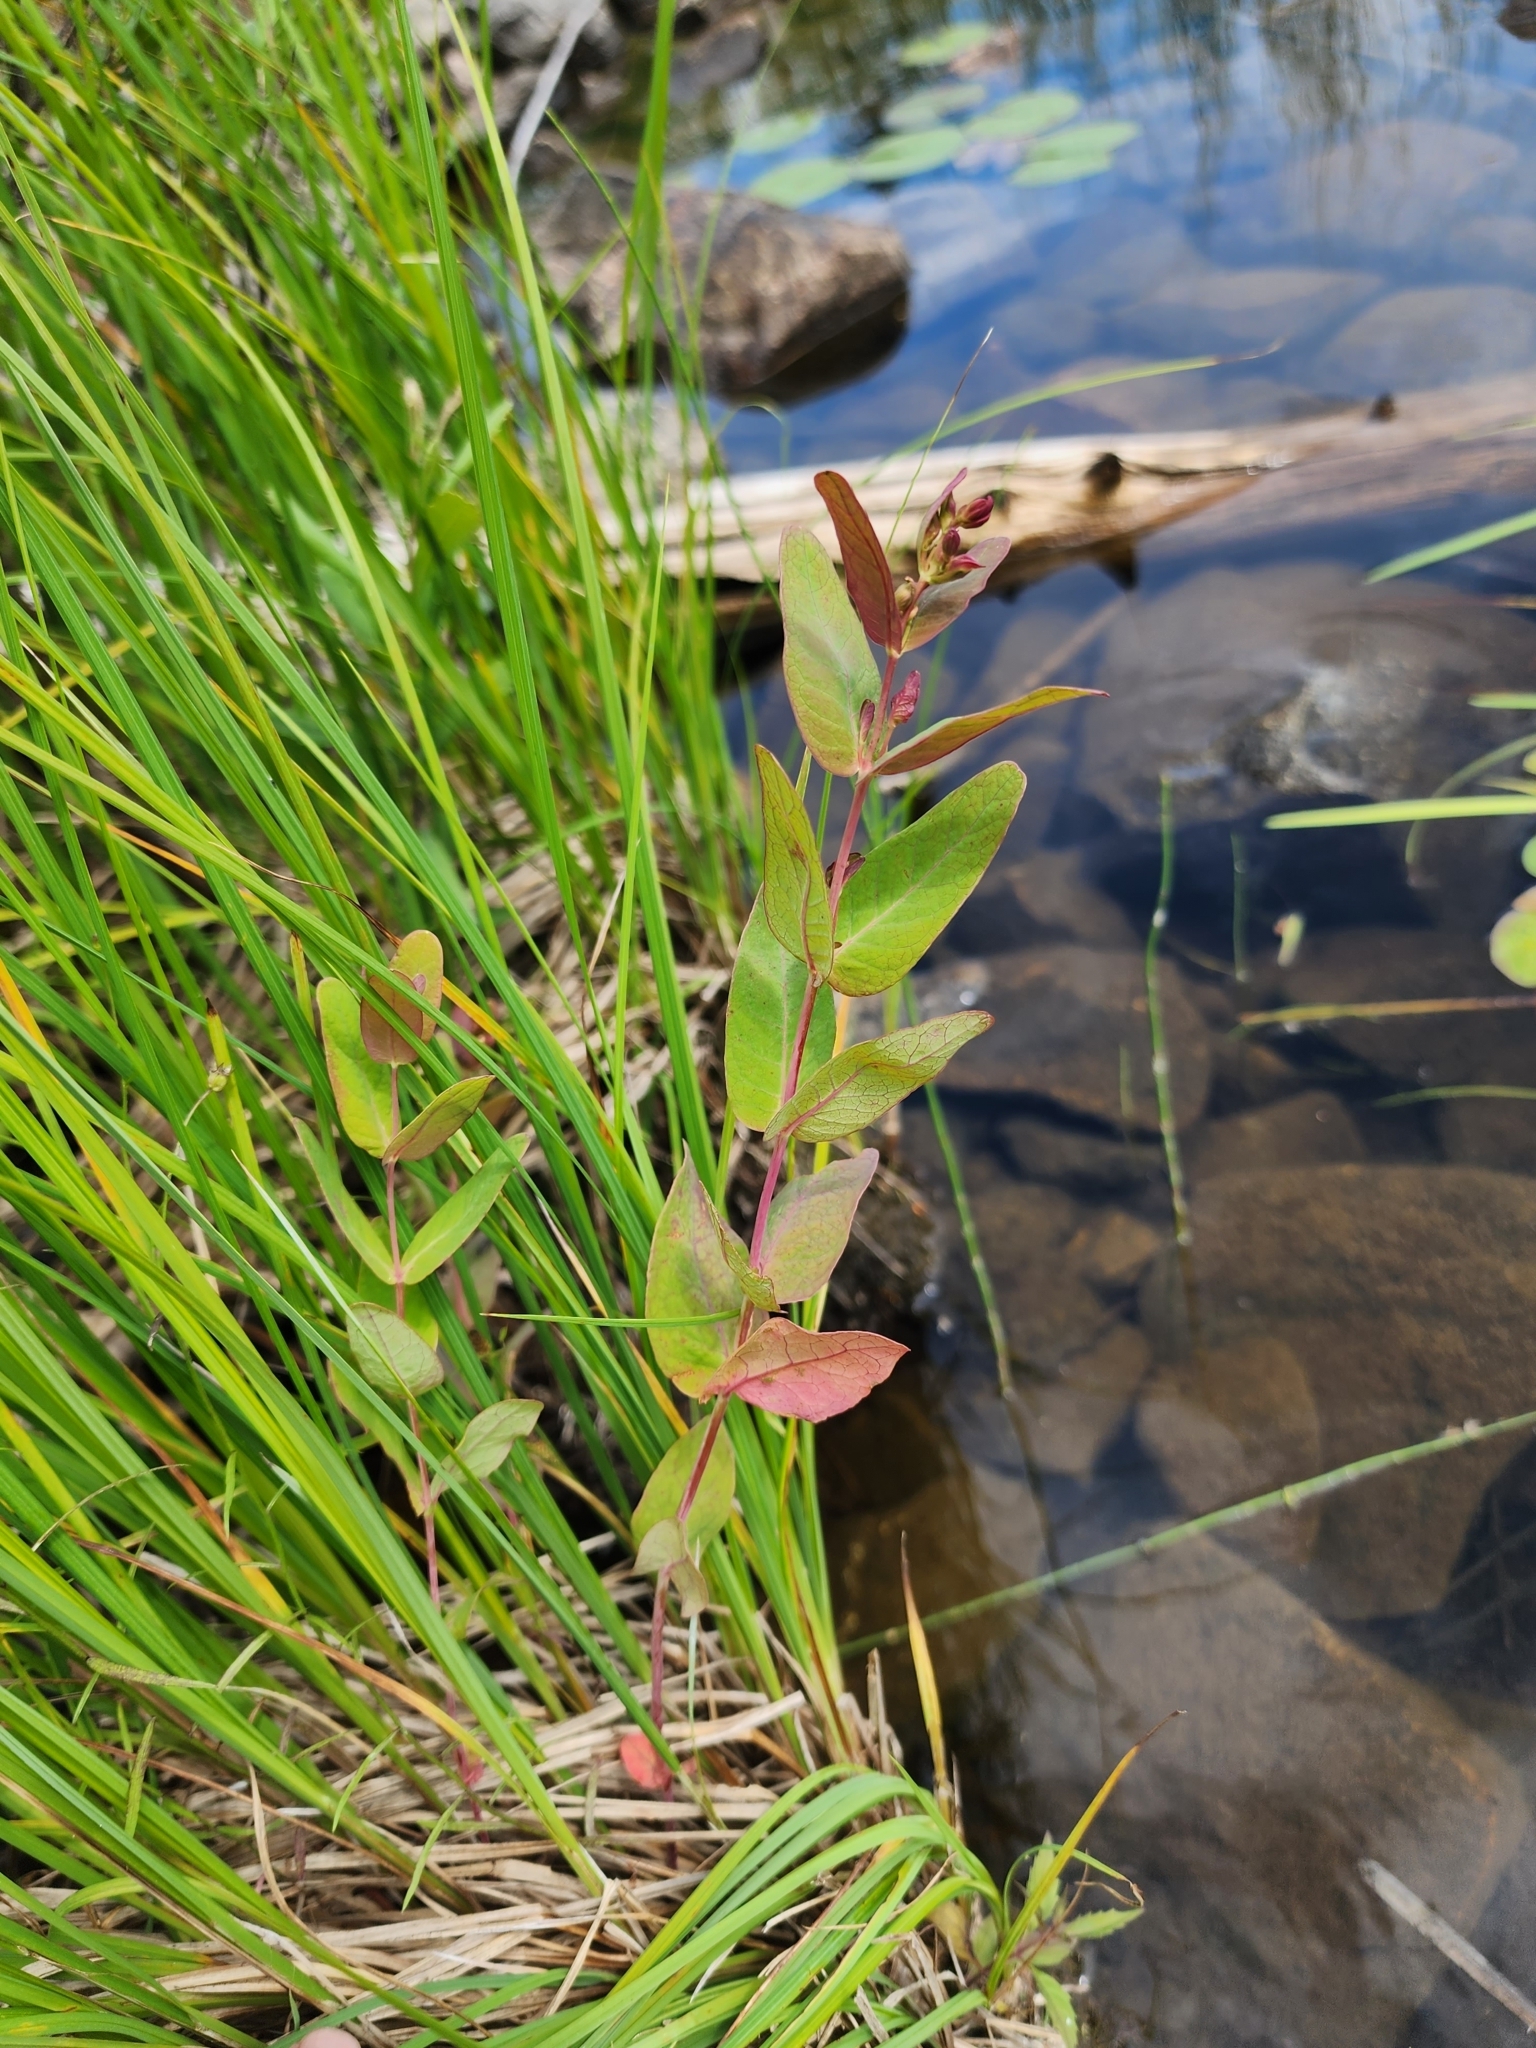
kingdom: Plantae
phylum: Tracheophyta
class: Magnoliopsida
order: Malpighiales
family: Hypericaceae
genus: Triadenum
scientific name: Triadenum fraseri
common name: Fraser's marsh st. johnswort
